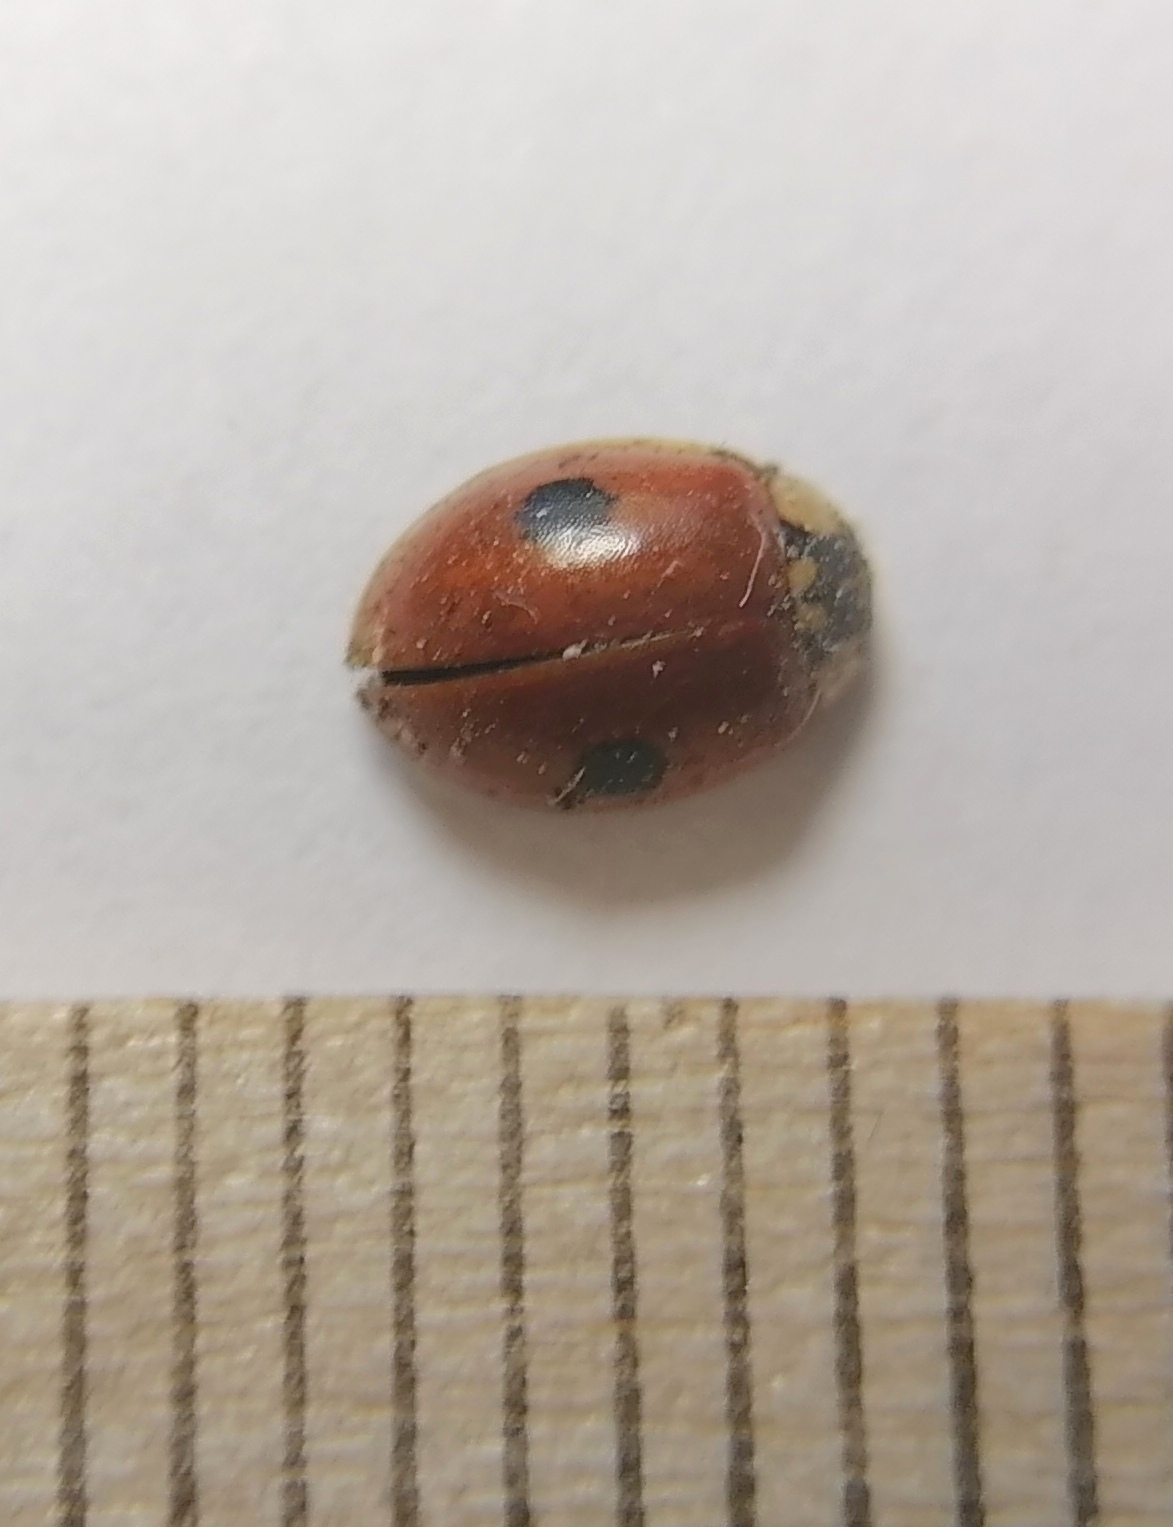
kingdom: Animalia
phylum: Arthropoda
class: Insecta
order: Coleoptera
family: Coccinellidae
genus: Adalia
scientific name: Adalia bipunctata
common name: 2-spot ladybird
